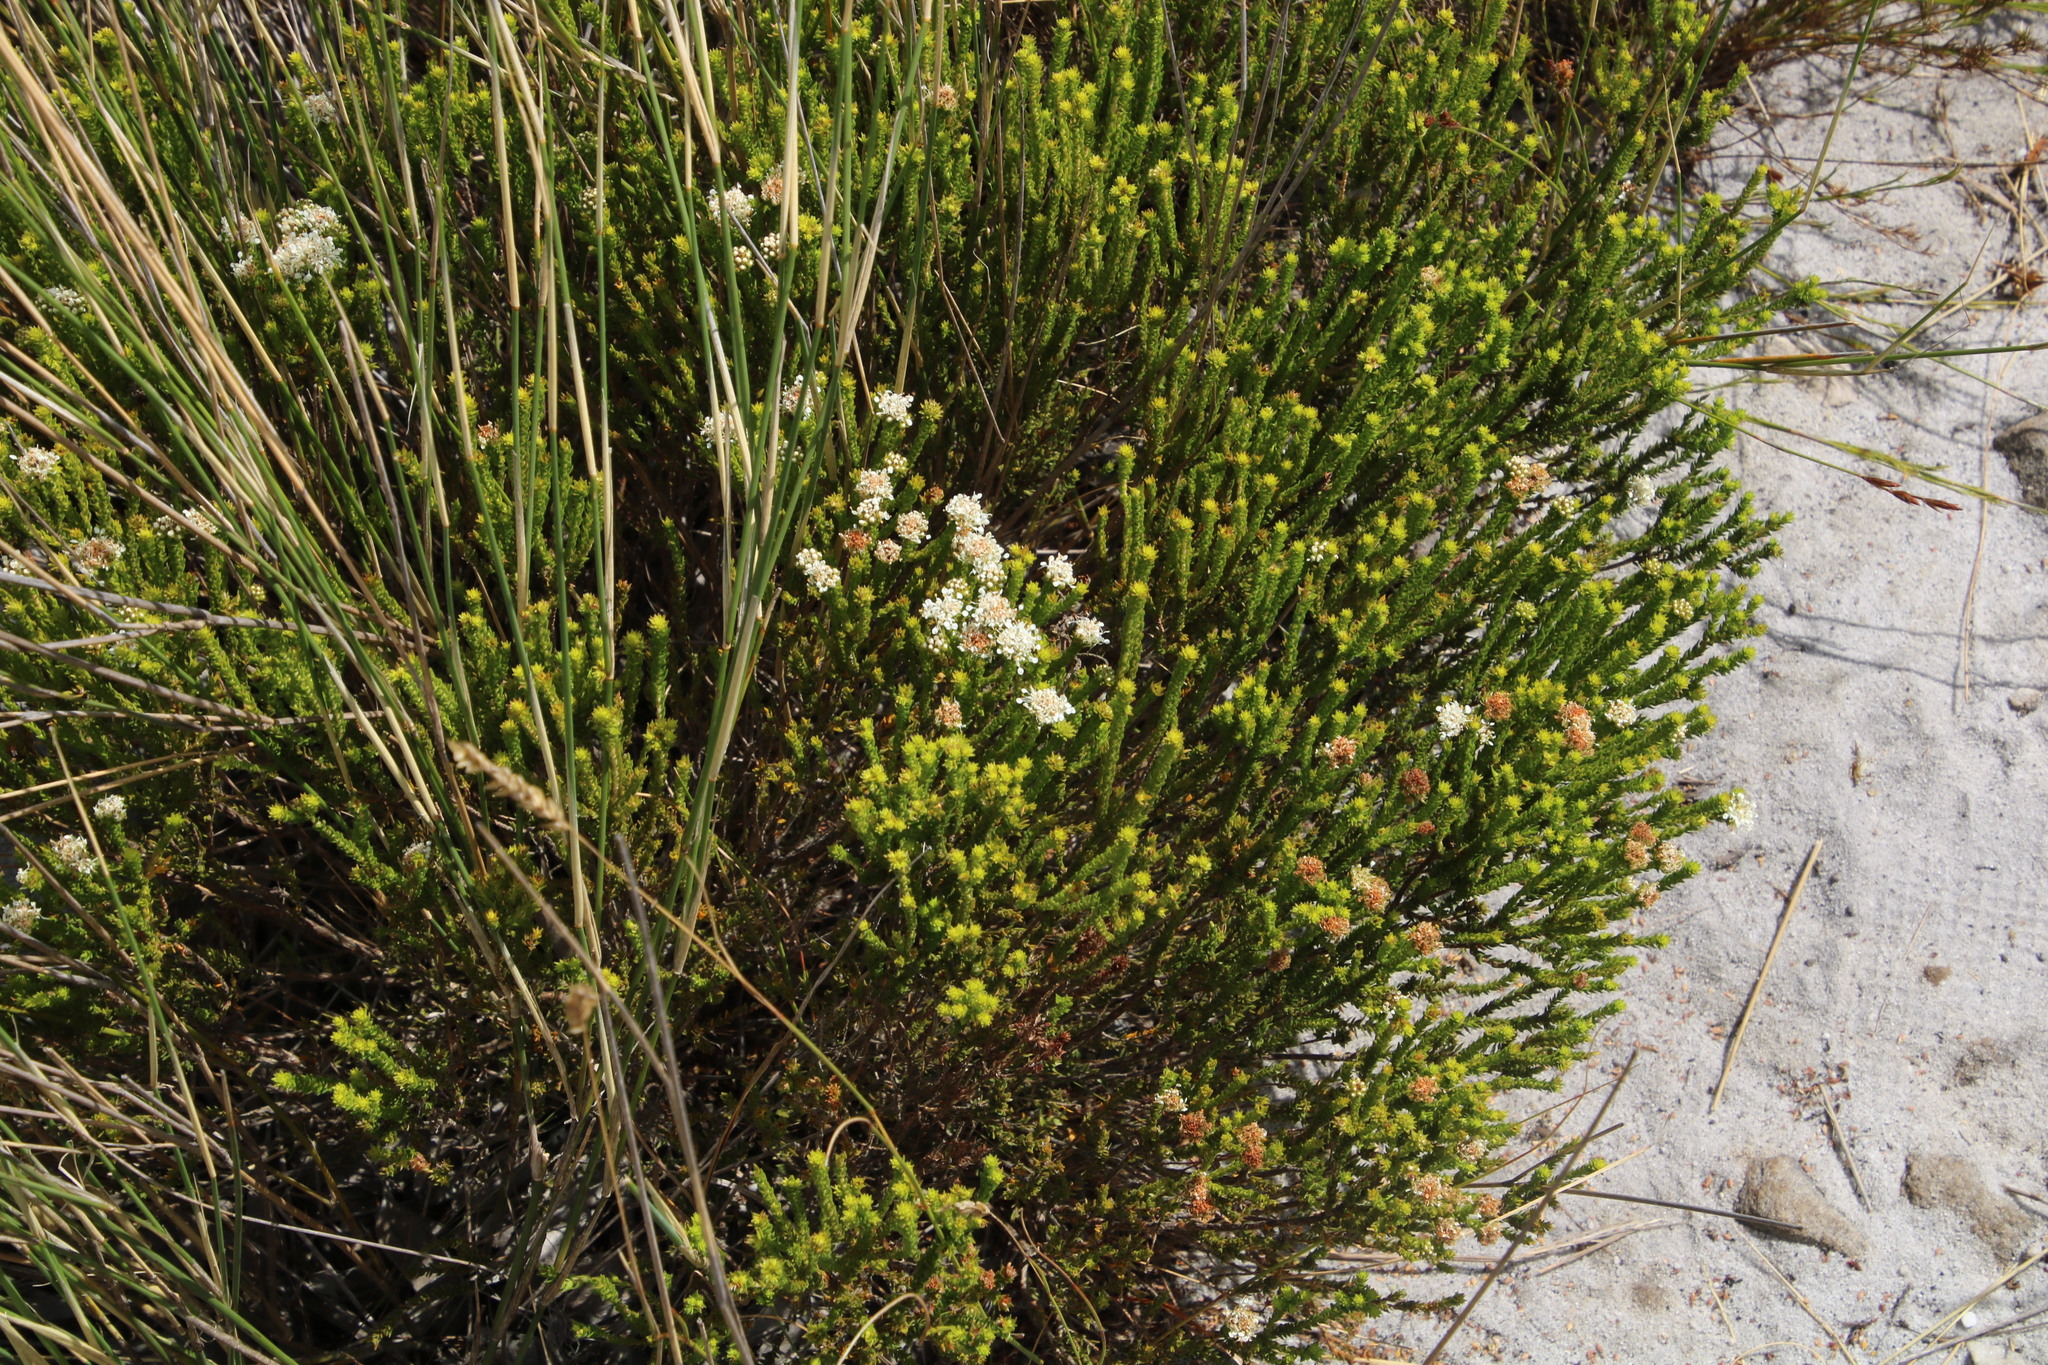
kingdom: Plantae
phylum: Tracheophyta
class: Magnoliopsida
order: Sapindales
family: Rutaceae
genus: Agathosma
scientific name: Agathosma imbricata
